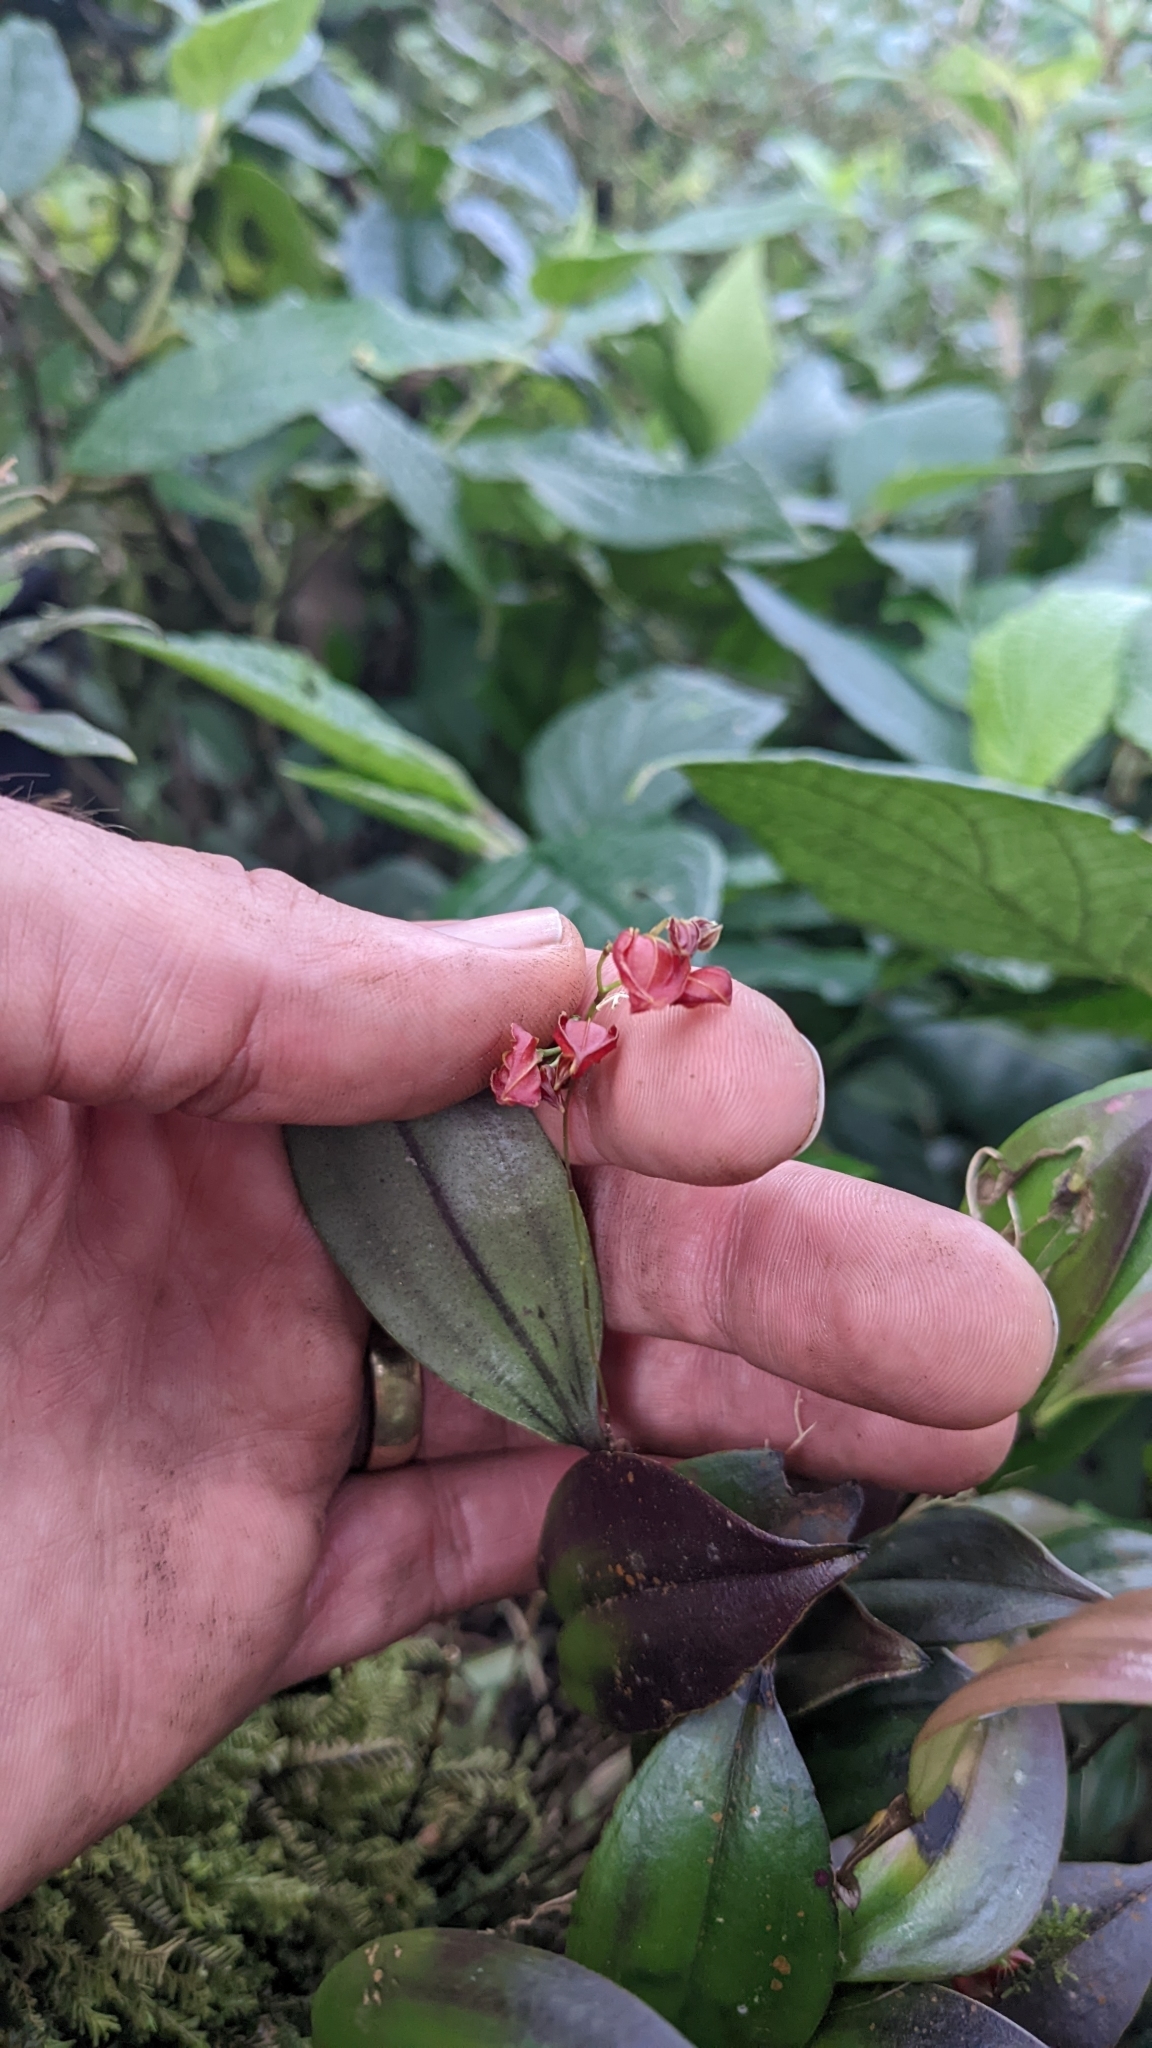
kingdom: Plantae
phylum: Tracheophyta
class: Liliopsida
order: Asparagales
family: Orchidaceae
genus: Lepanthes
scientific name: Lepanthes wendlandii
